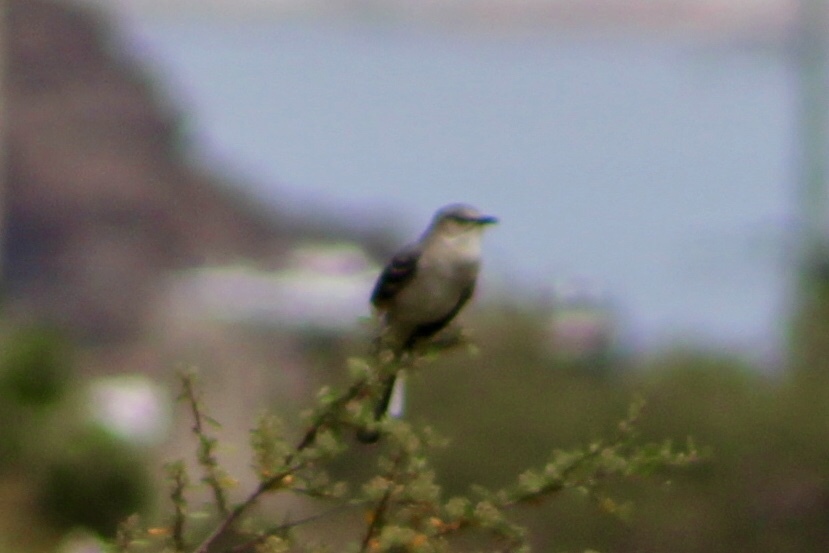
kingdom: Animalia
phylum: Chordata
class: Aves
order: Passeriformes
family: Mimidae
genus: Mimus
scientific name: Mimus polyglottos
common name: Northern mockingbird
